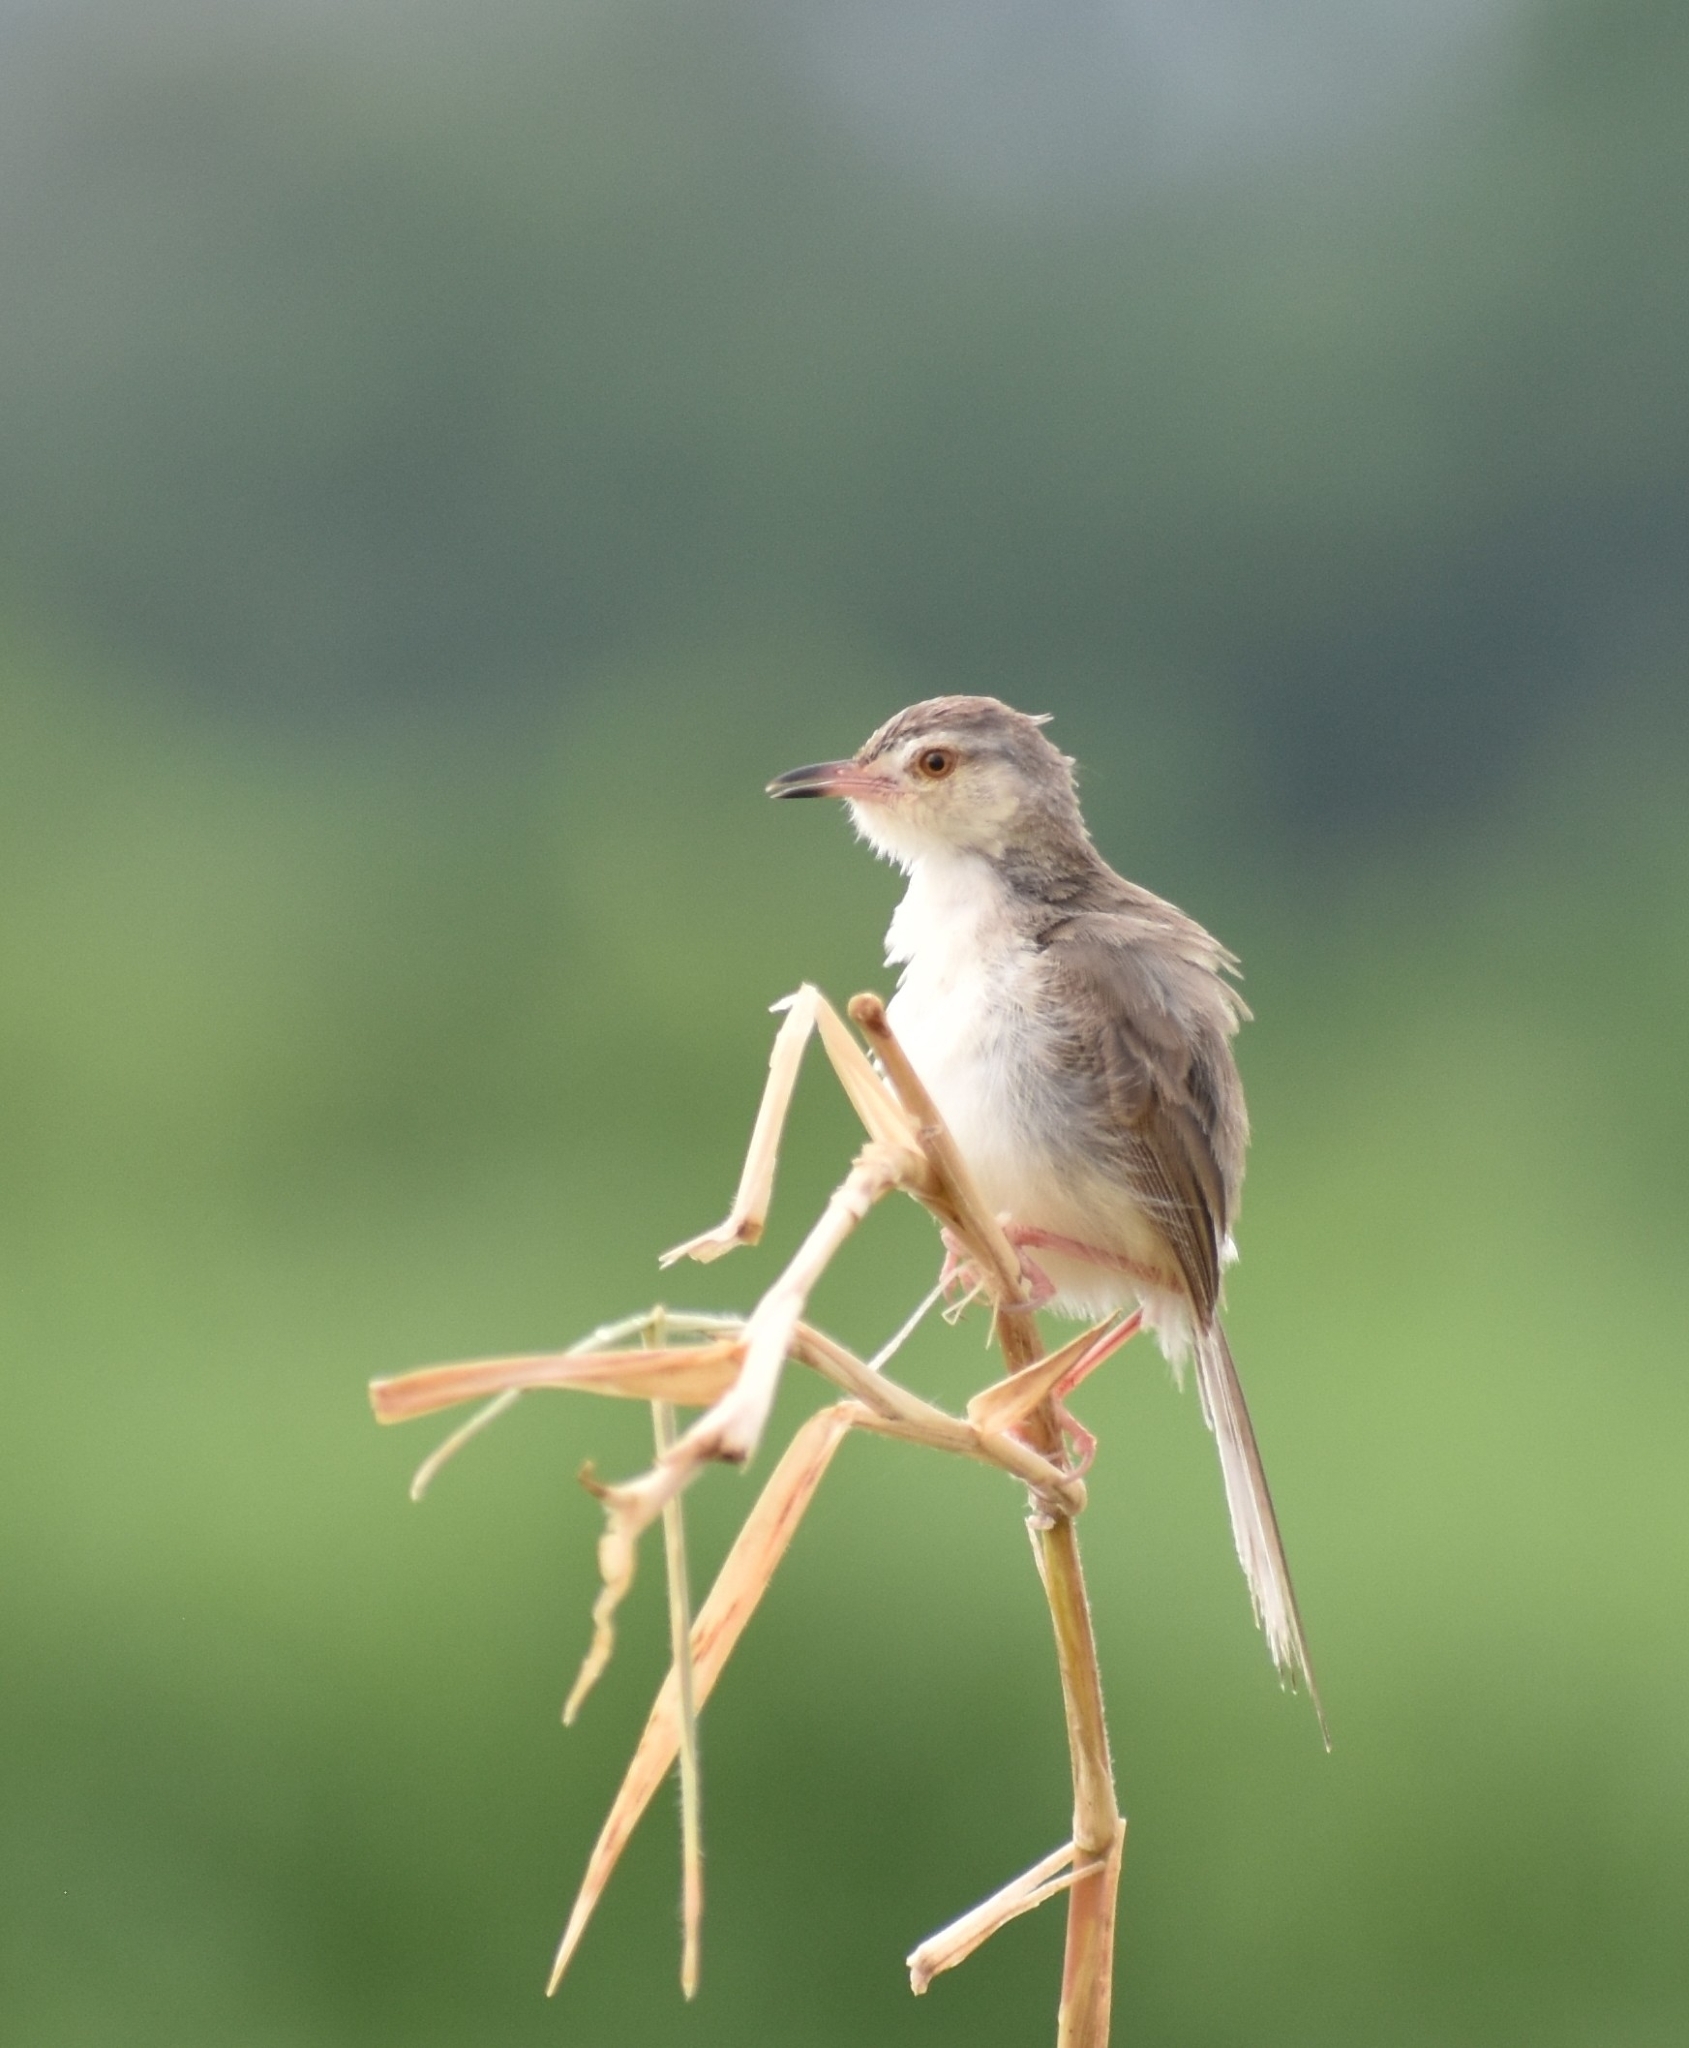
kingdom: Animalia
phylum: Chordata
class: Aves
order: Passeriformes
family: Cisticolidae
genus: Prinia
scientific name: Prinia inornata
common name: Plain prinia
